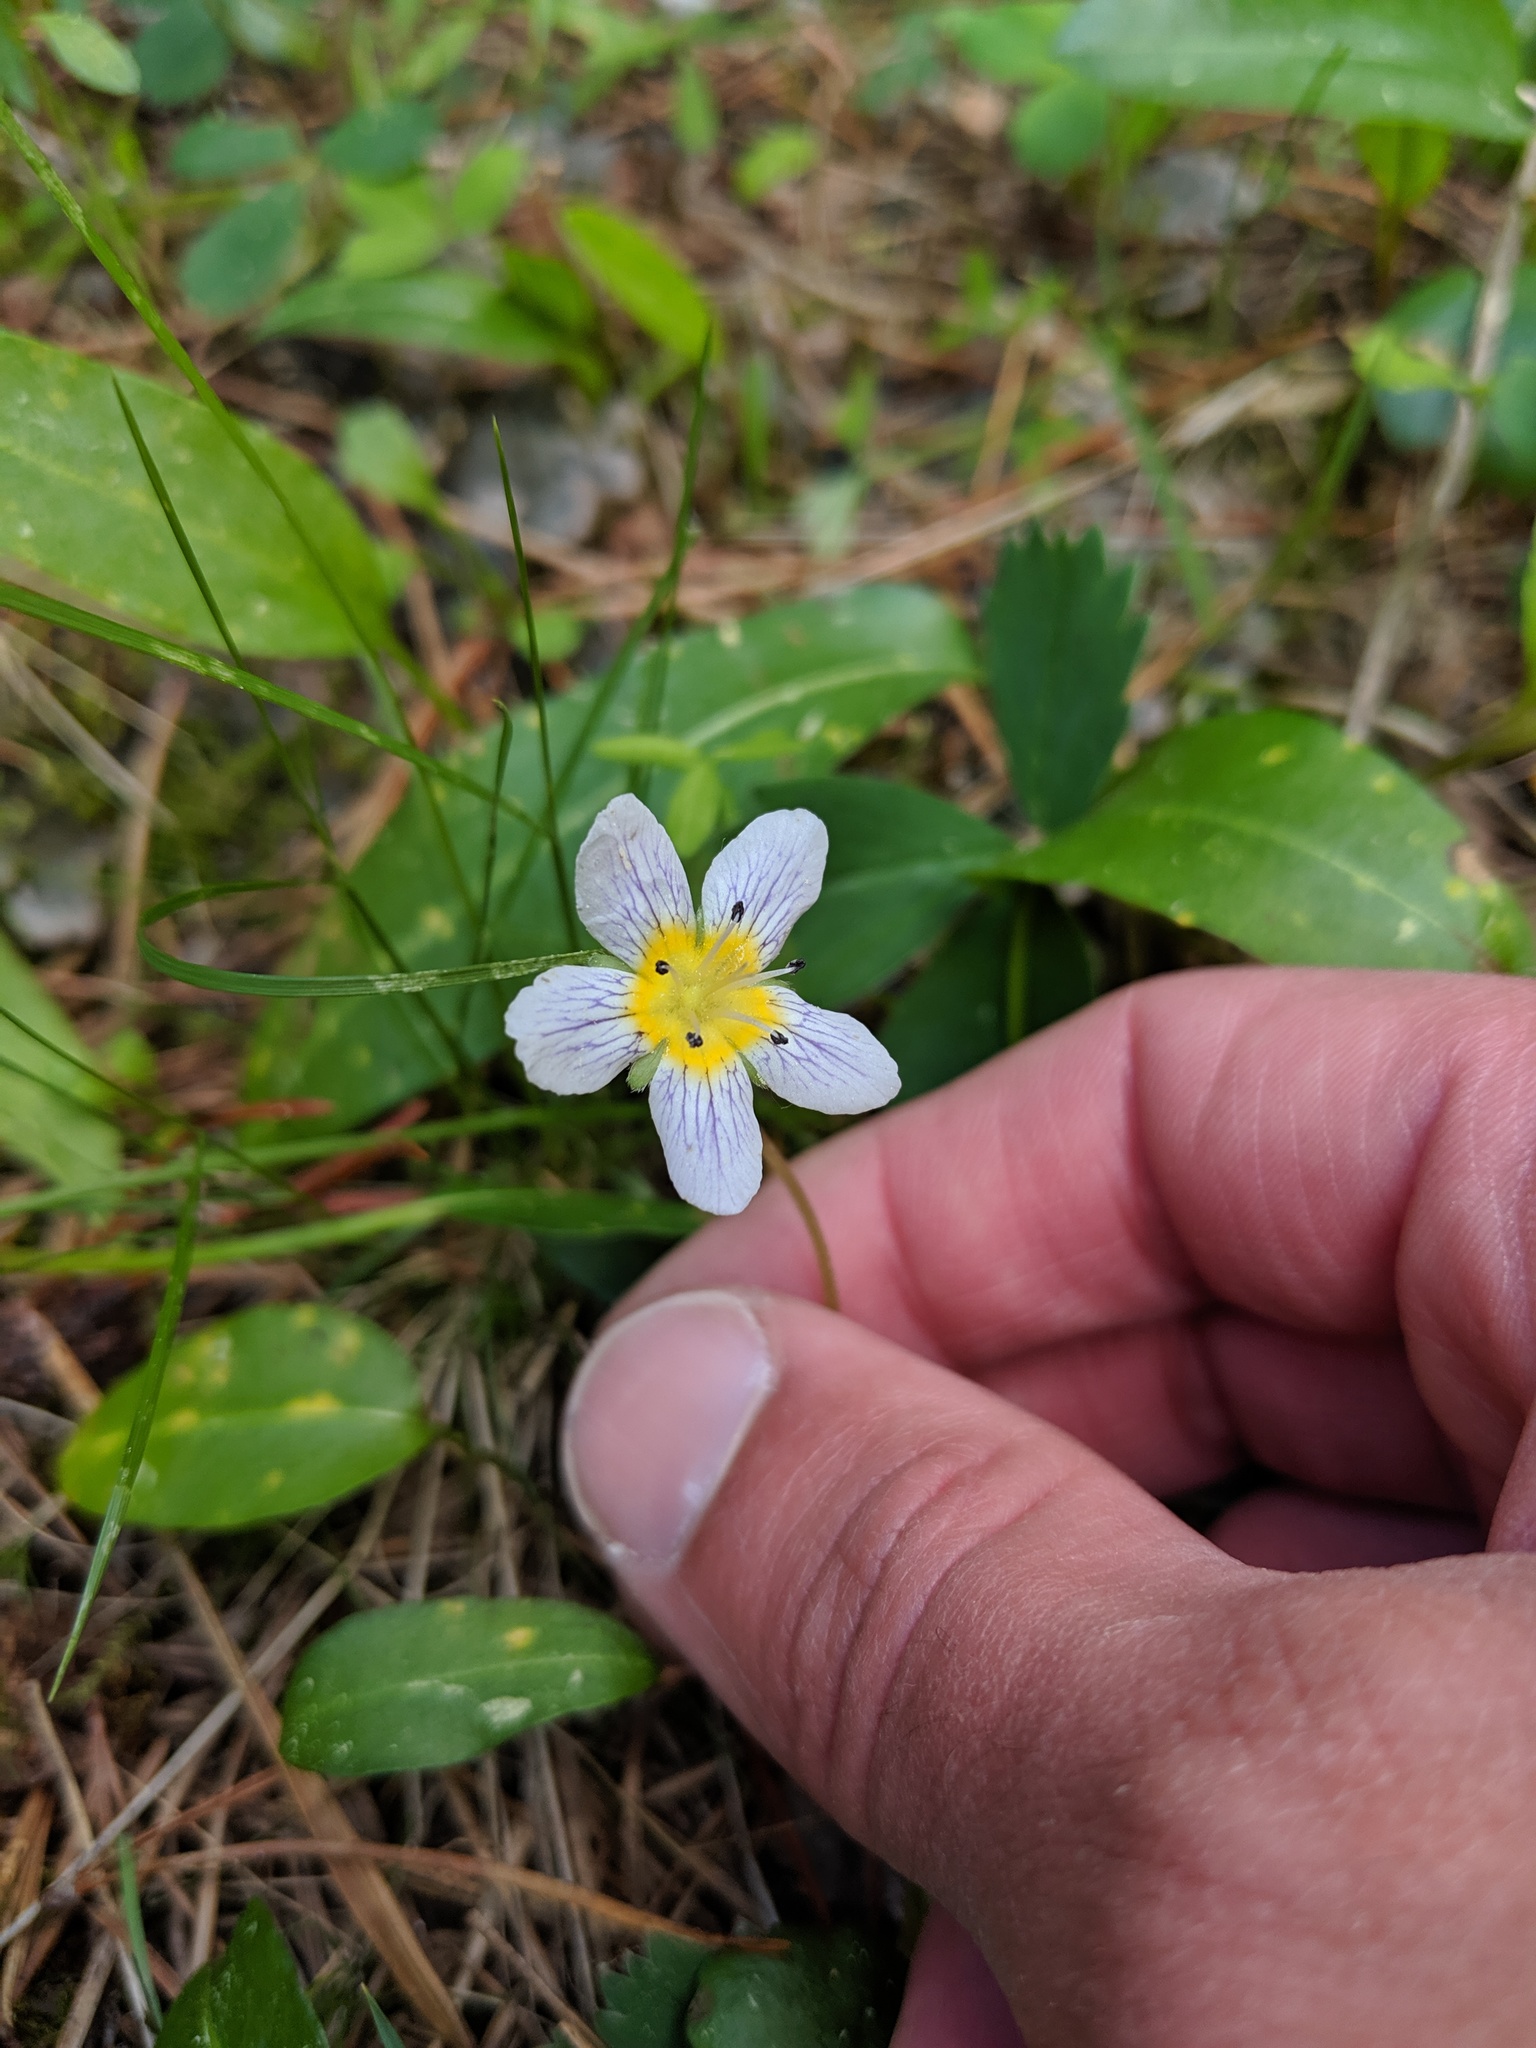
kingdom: Plantae
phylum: Tracheophyta
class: Magnoliopsida
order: Boraginales
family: Hydrophyllaceae
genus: Hesperochiron
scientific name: Hesperochiron pumilus
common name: Dwarf hesperochiron
